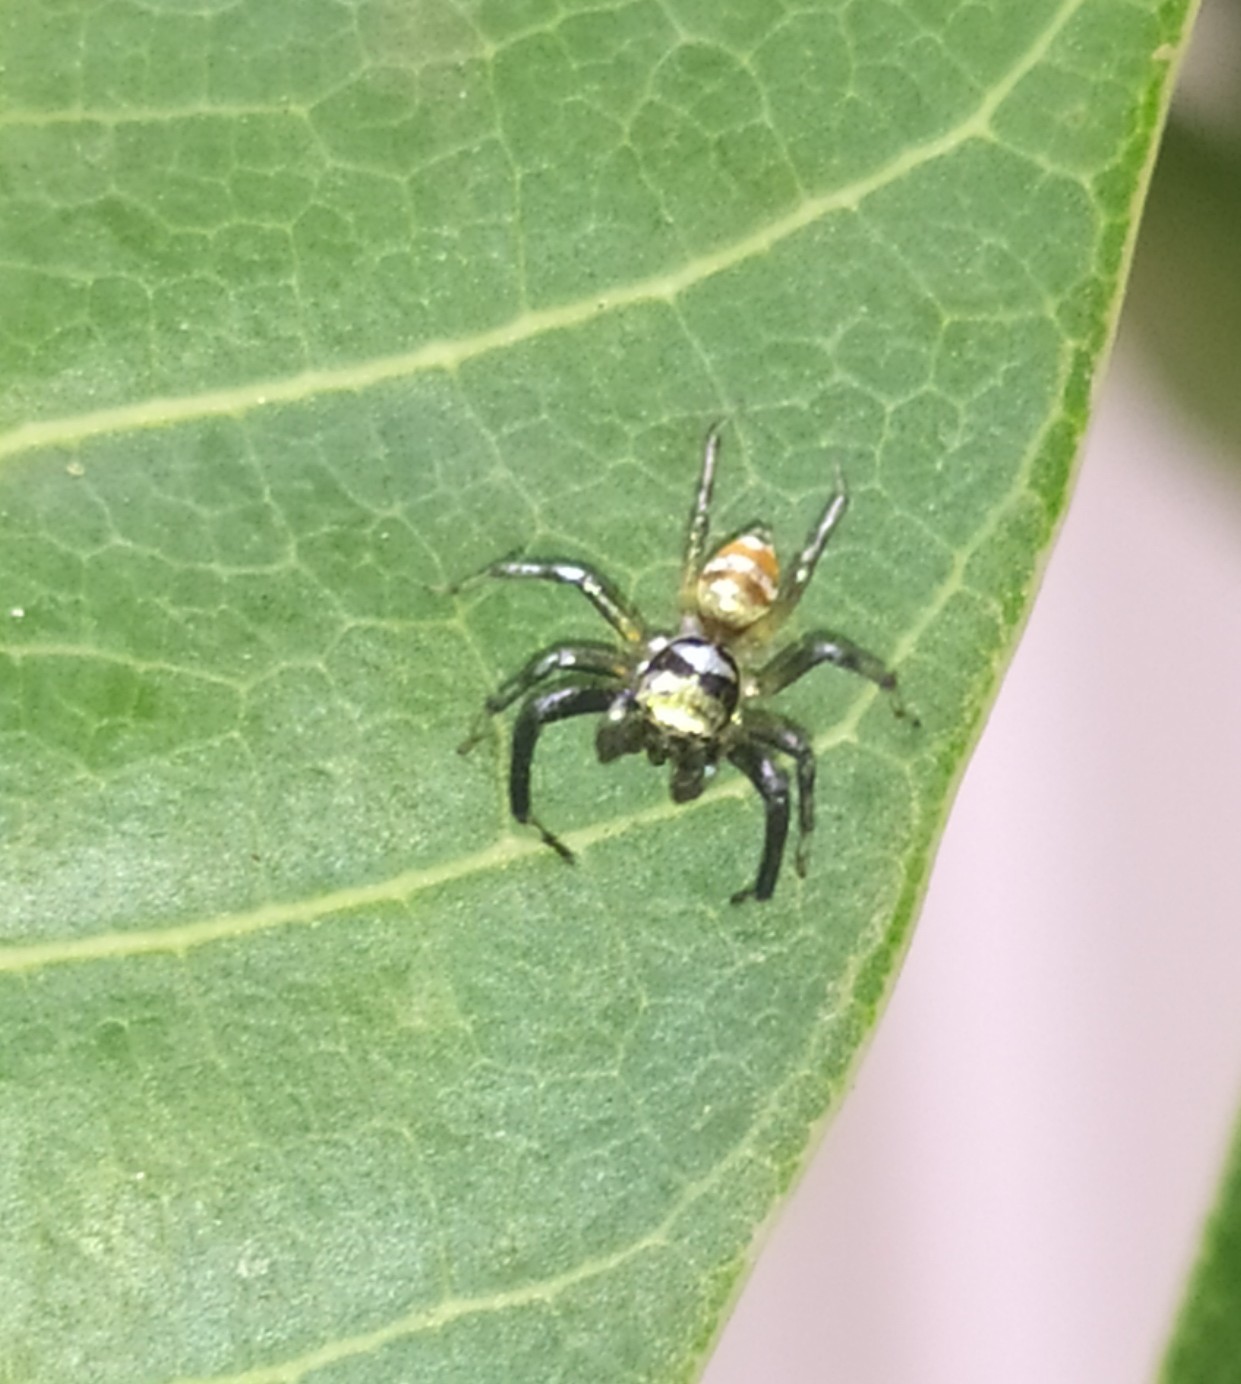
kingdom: Animalia
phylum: Arthropoda
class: Arachnida
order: Araneae
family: Salticidae
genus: Phintella
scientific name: Phintella vittata
